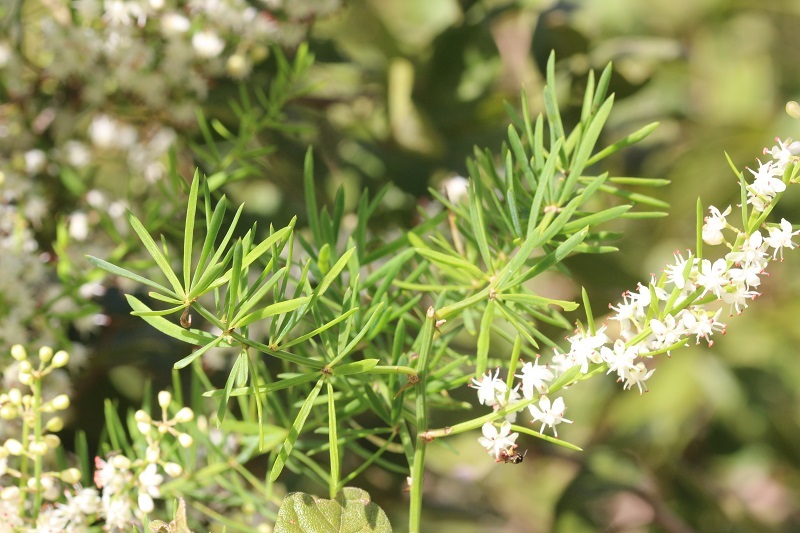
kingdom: Plantae
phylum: Tracheophyta
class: Liliopsida
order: Asparagales
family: Asparagaceae
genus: Asparagus
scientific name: Asparagus aethiopicus
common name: Sprenger's asparagus fern
